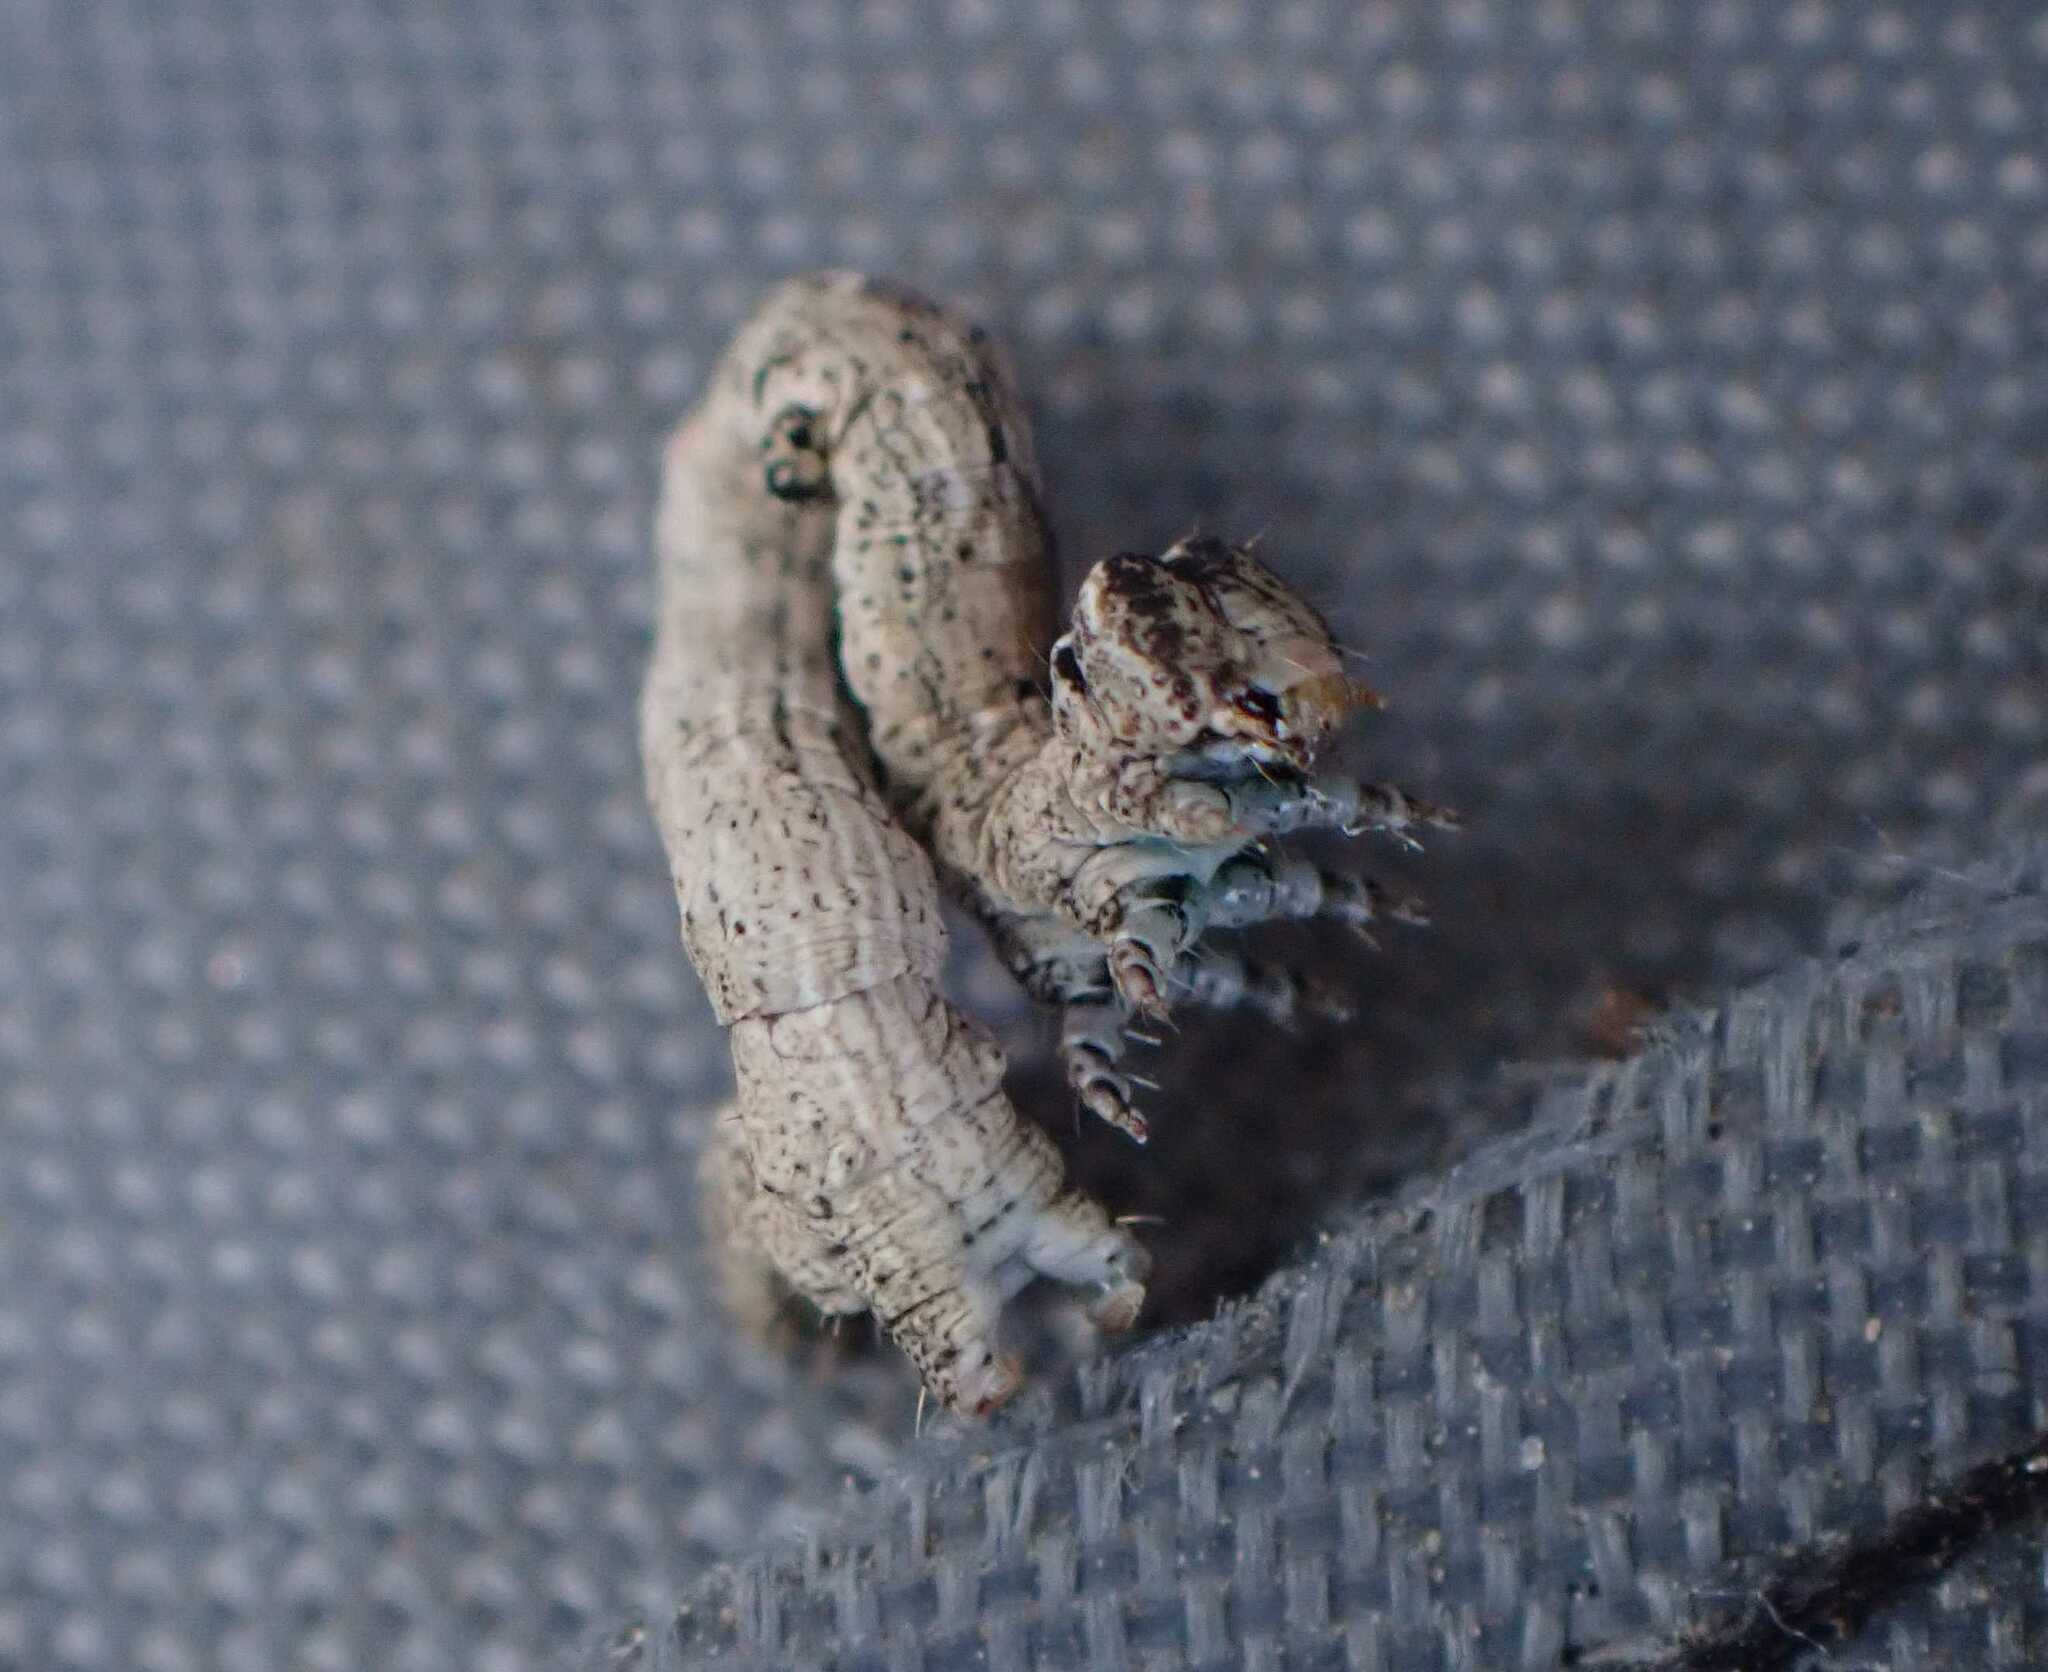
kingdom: Animalia
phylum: Arthropoda
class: Insecta
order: Lepidoptera
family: Geometridae
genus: Peribatodes
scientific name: Peribatodes rhomboidaria
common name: Willow beauty
